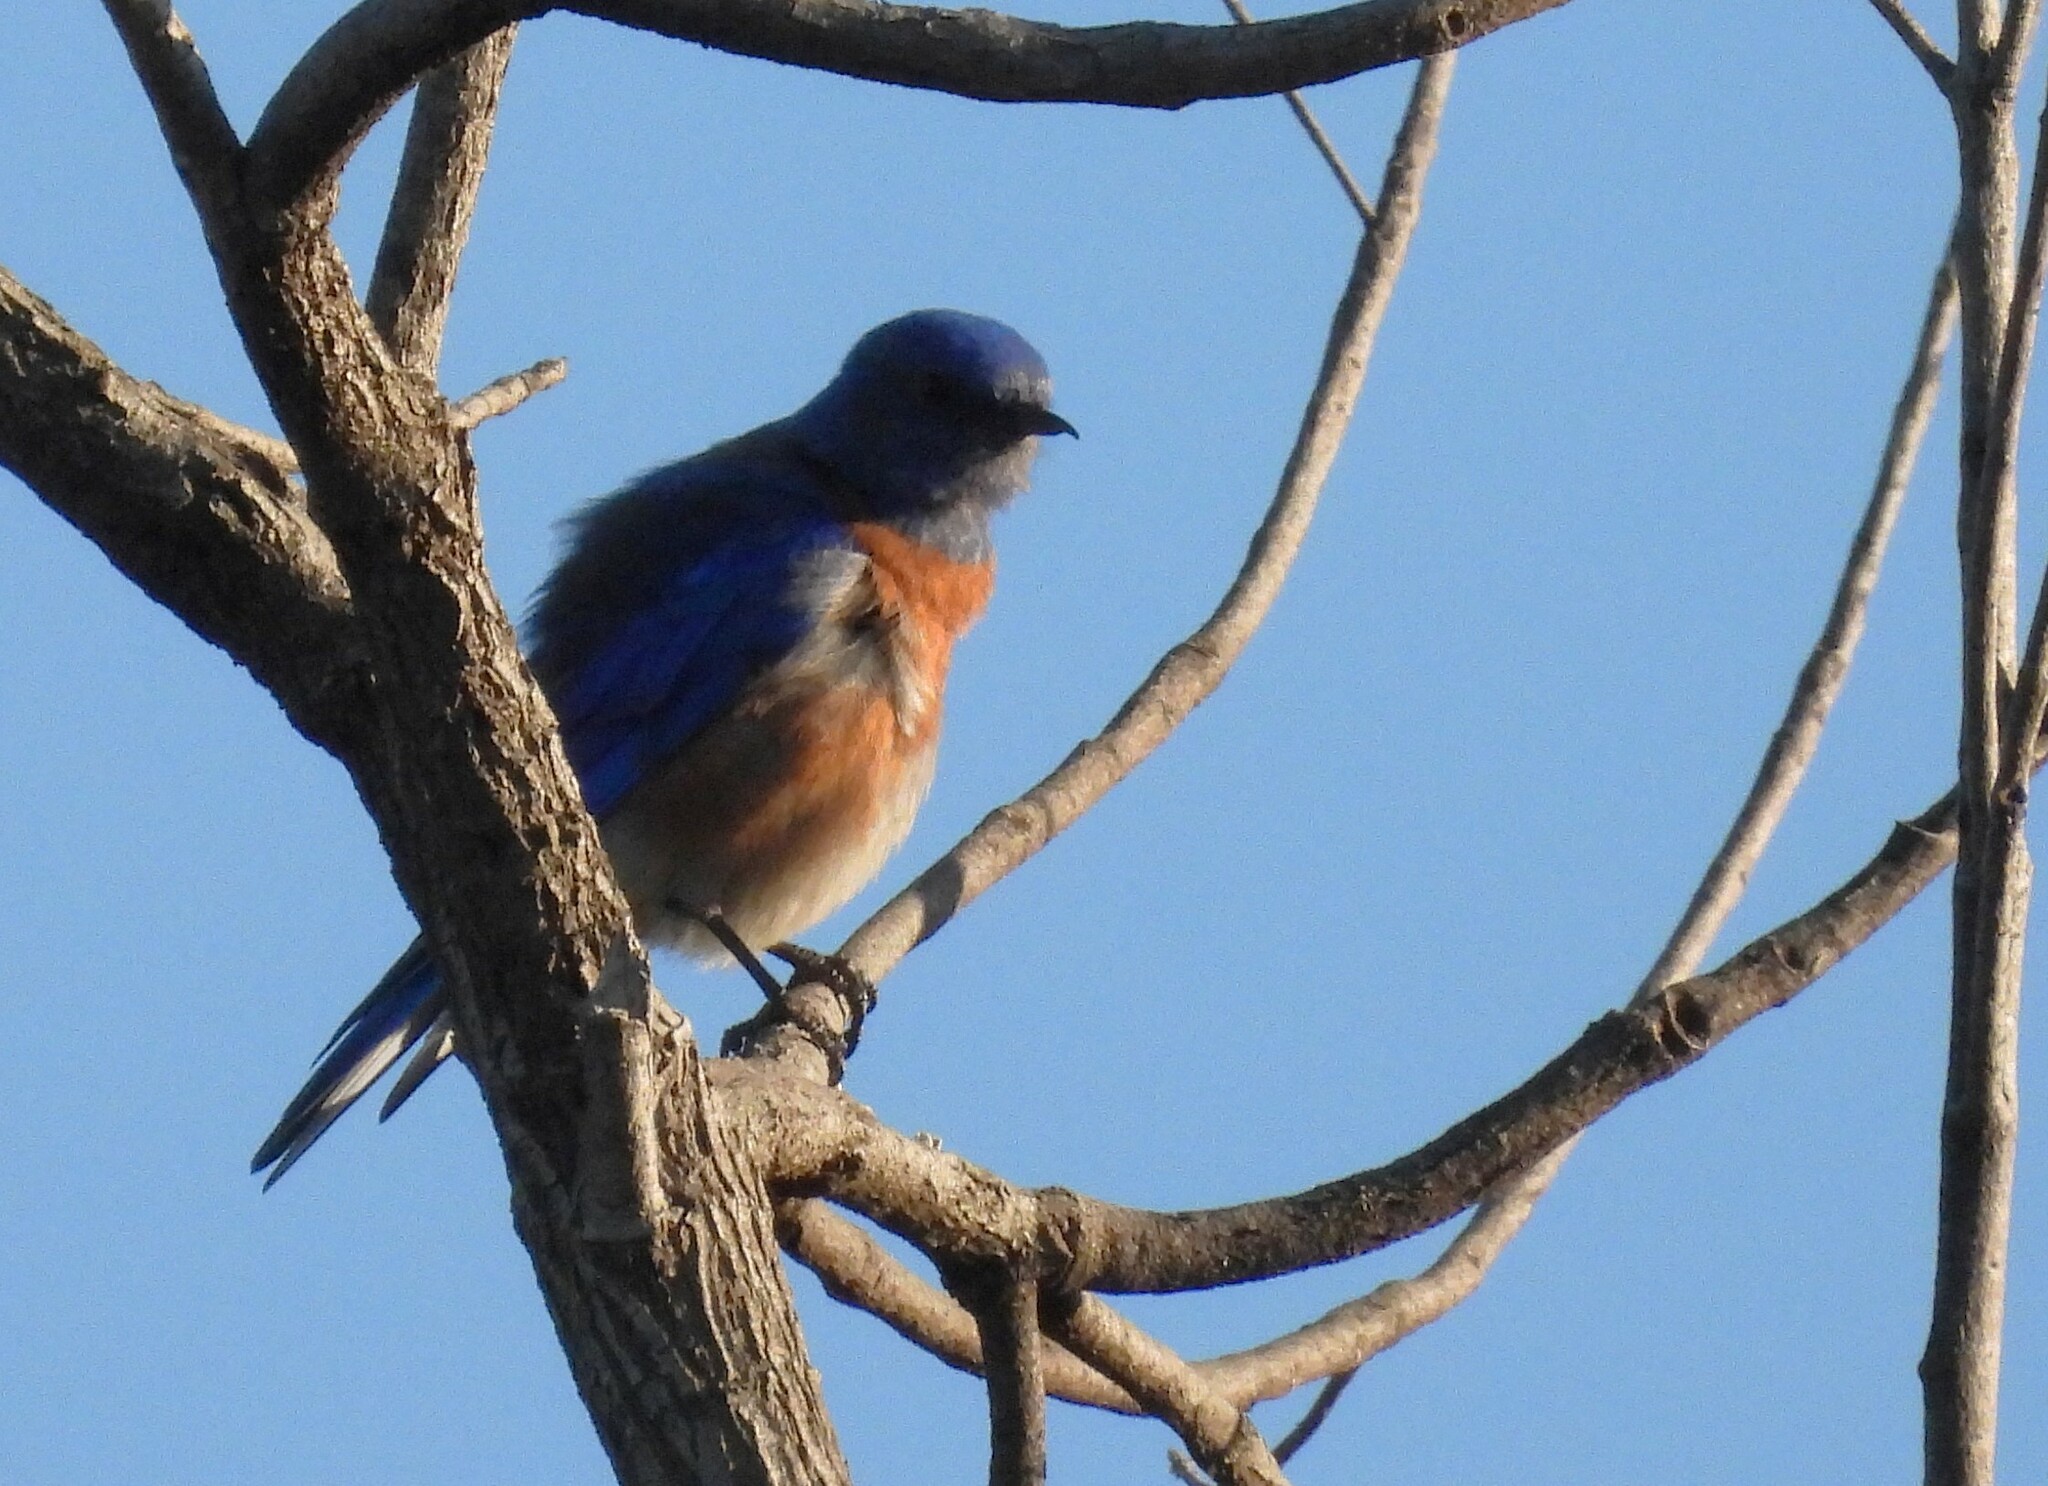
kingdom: Animalia
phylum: Chordata
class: Aves
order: Passeriformes
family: Turdidae
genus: Sialia
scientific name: Sialia mexicana
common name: Western bluebird
